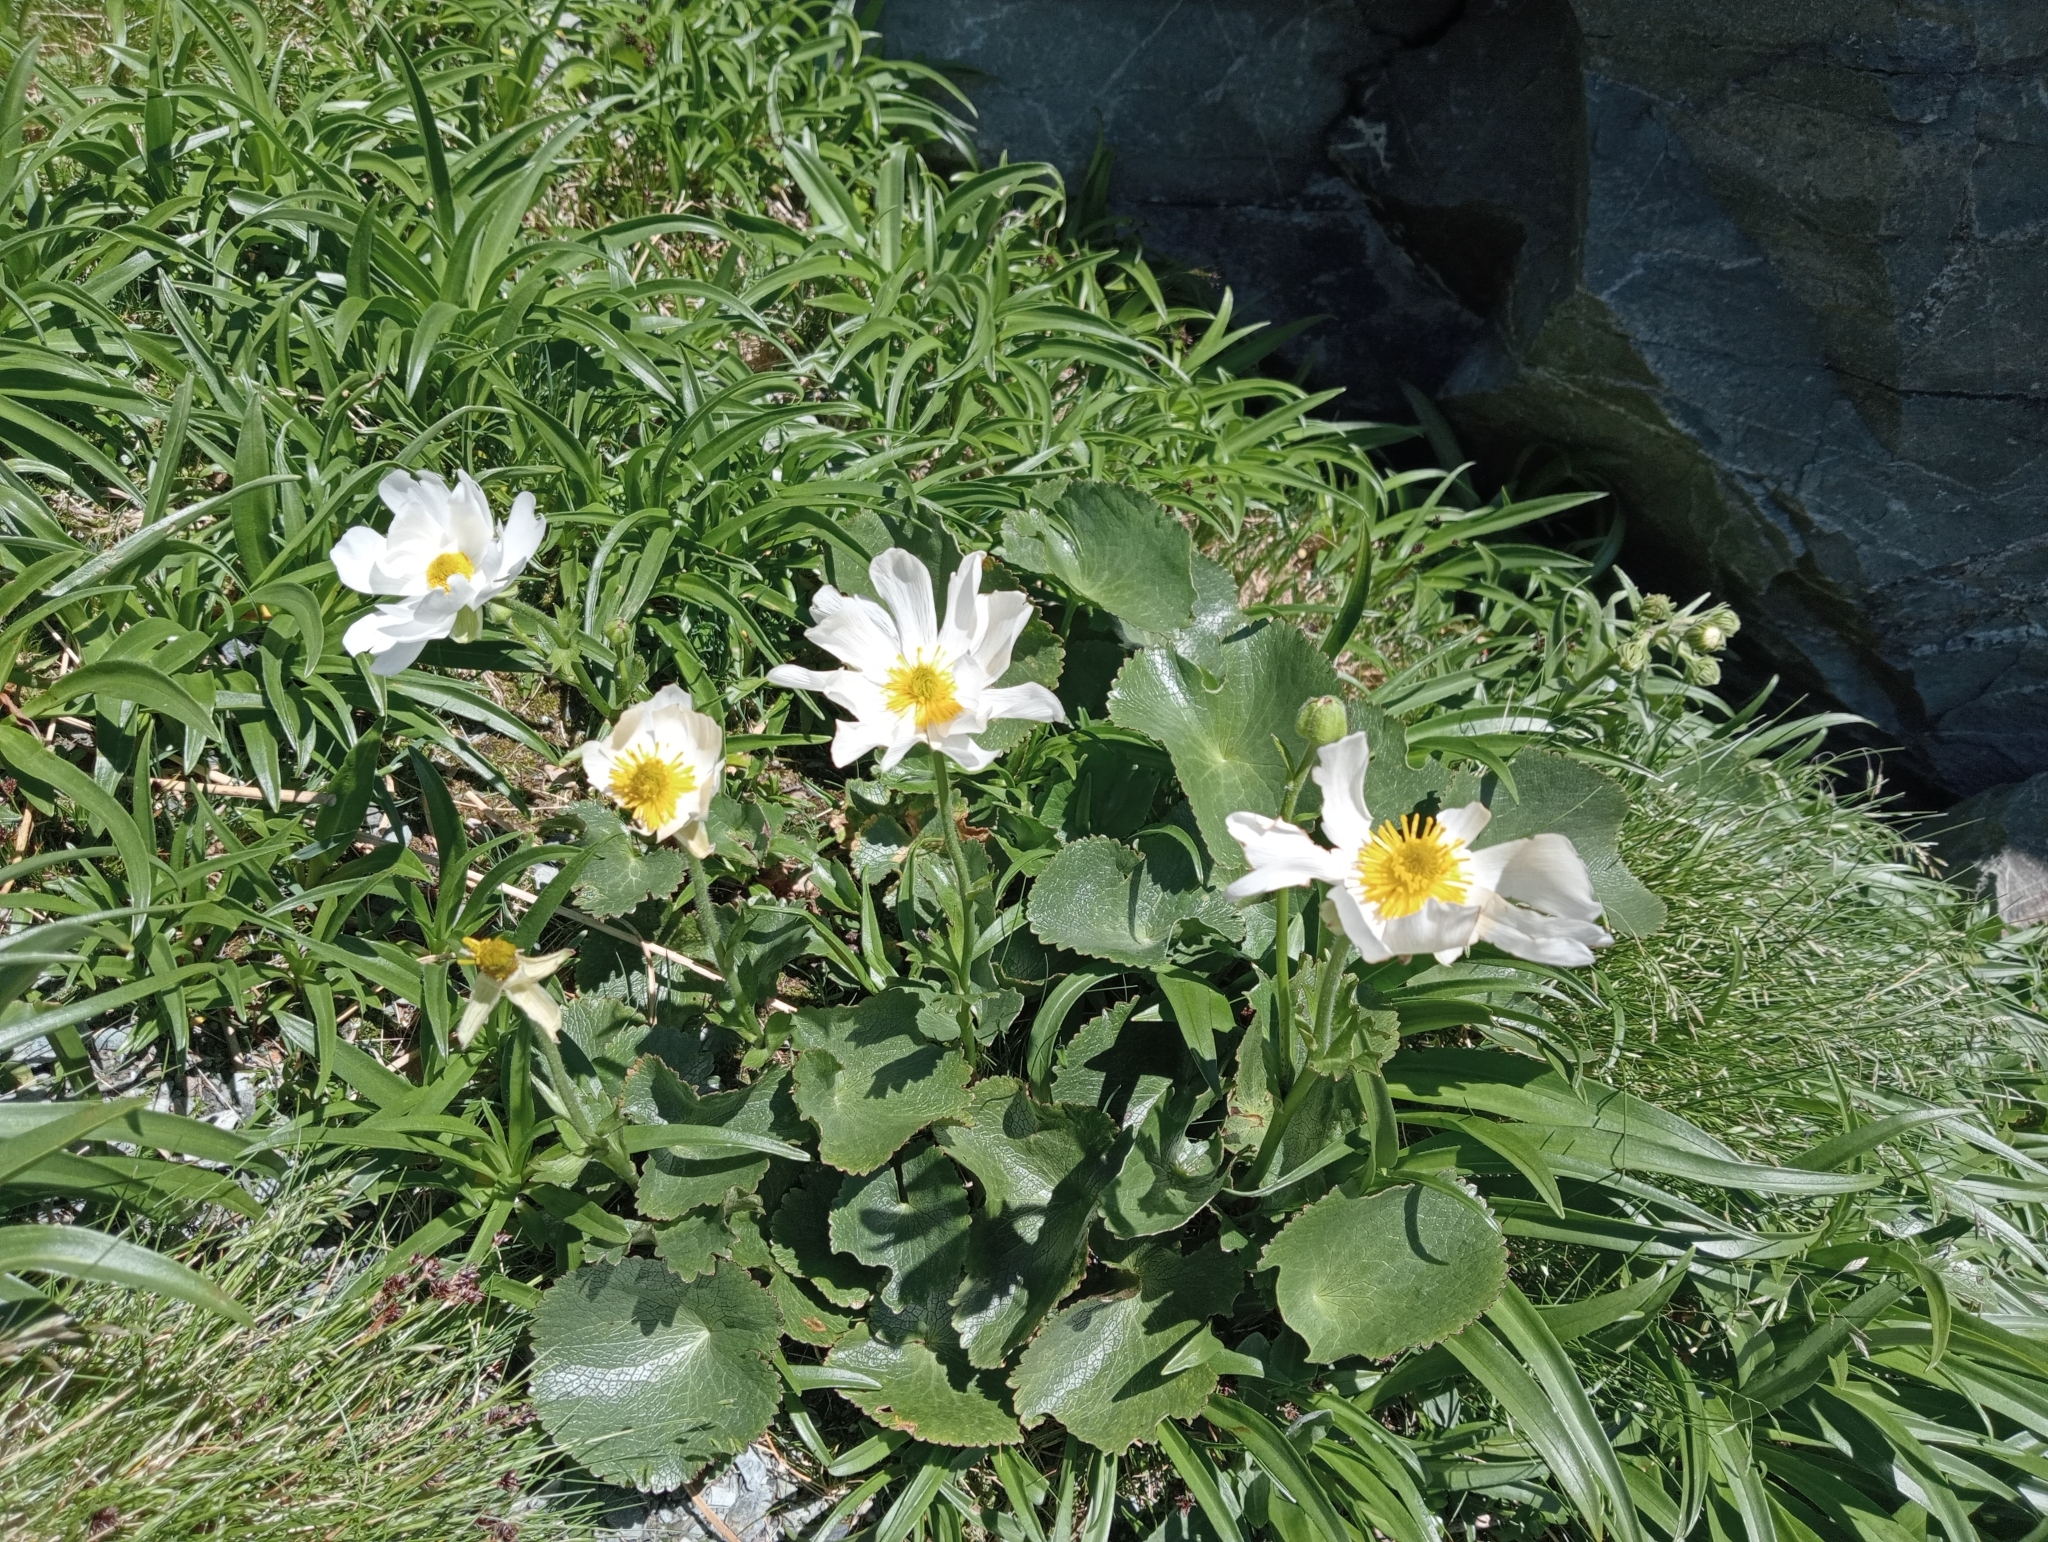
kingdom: Plantae
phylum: Tracheophyta
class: Magnoliopsida
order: Ranunculales
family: Ranunculaceae
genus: Ranunculus
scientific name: Ranunculus lyallii
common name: Mountain-lily
